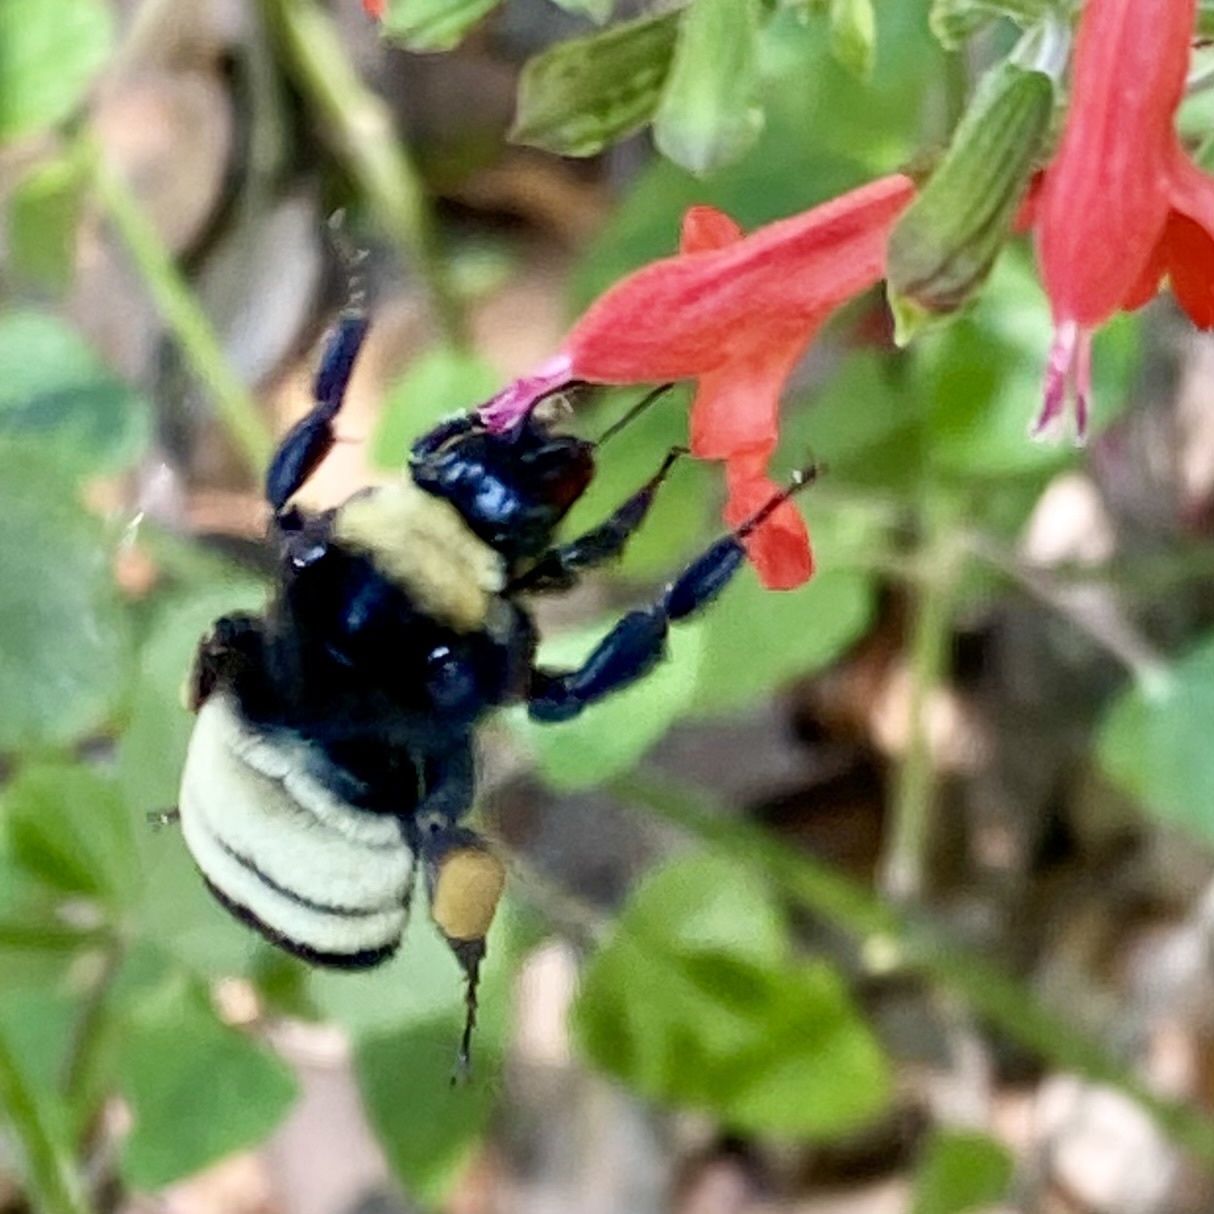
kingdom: Animalia
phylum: Arthropoda
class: Insecta
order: Hymenoptera
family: Apidae
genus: Bombus
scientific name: Bombus pensylvanicus
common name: Bumble bee
